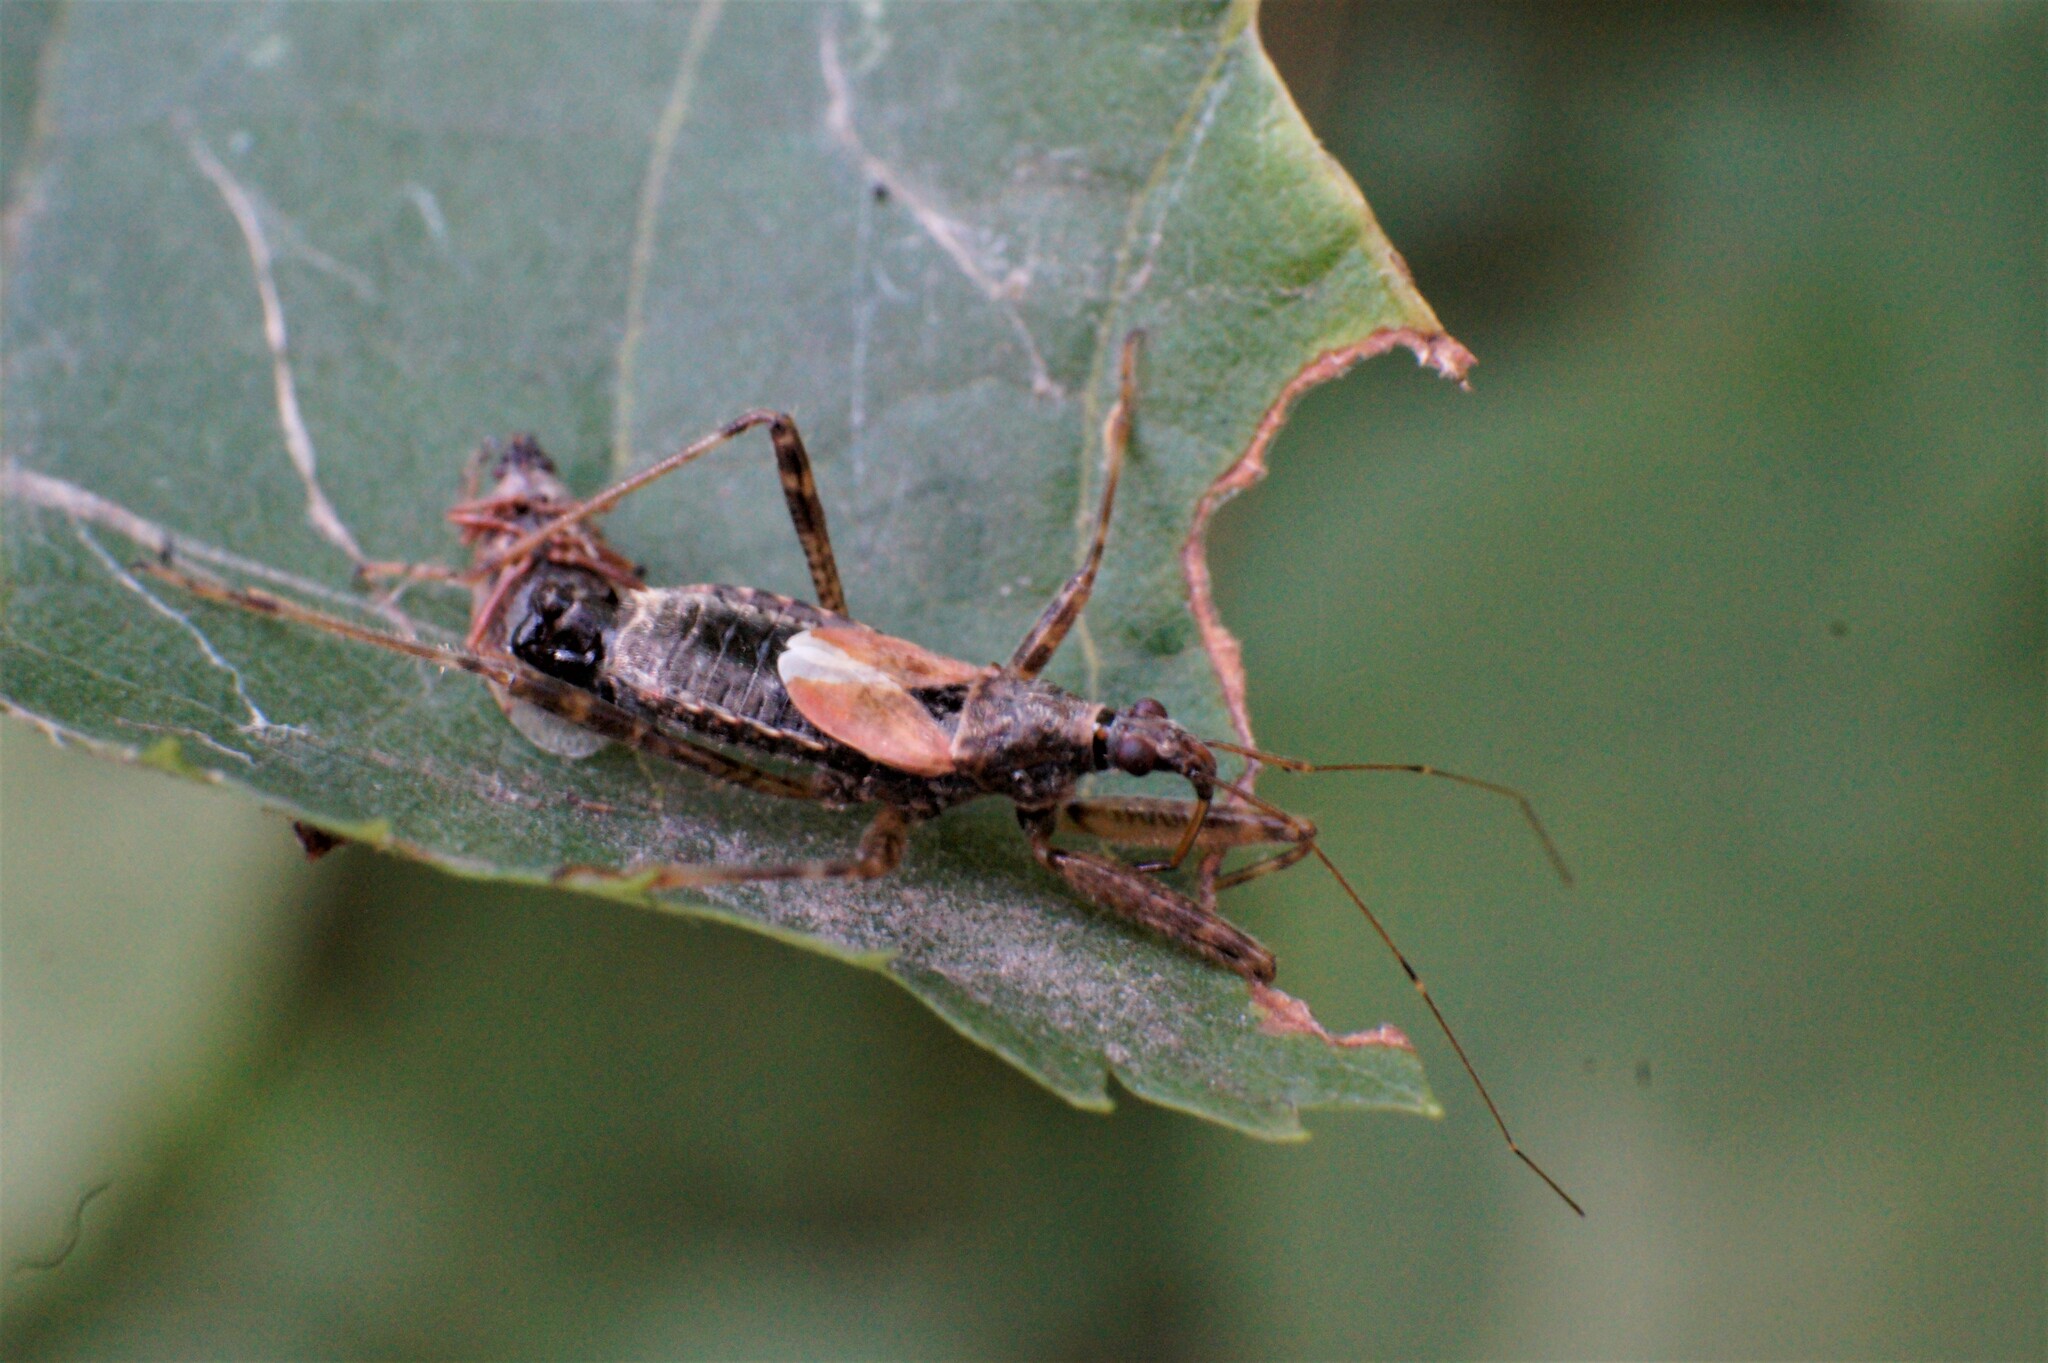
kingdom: Animalia
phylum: Arthropoda
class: Insecta
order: Hemiptera
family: Nabidae
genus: Himacerus
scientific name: Himacerus apterus
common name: Tree damsel bug
